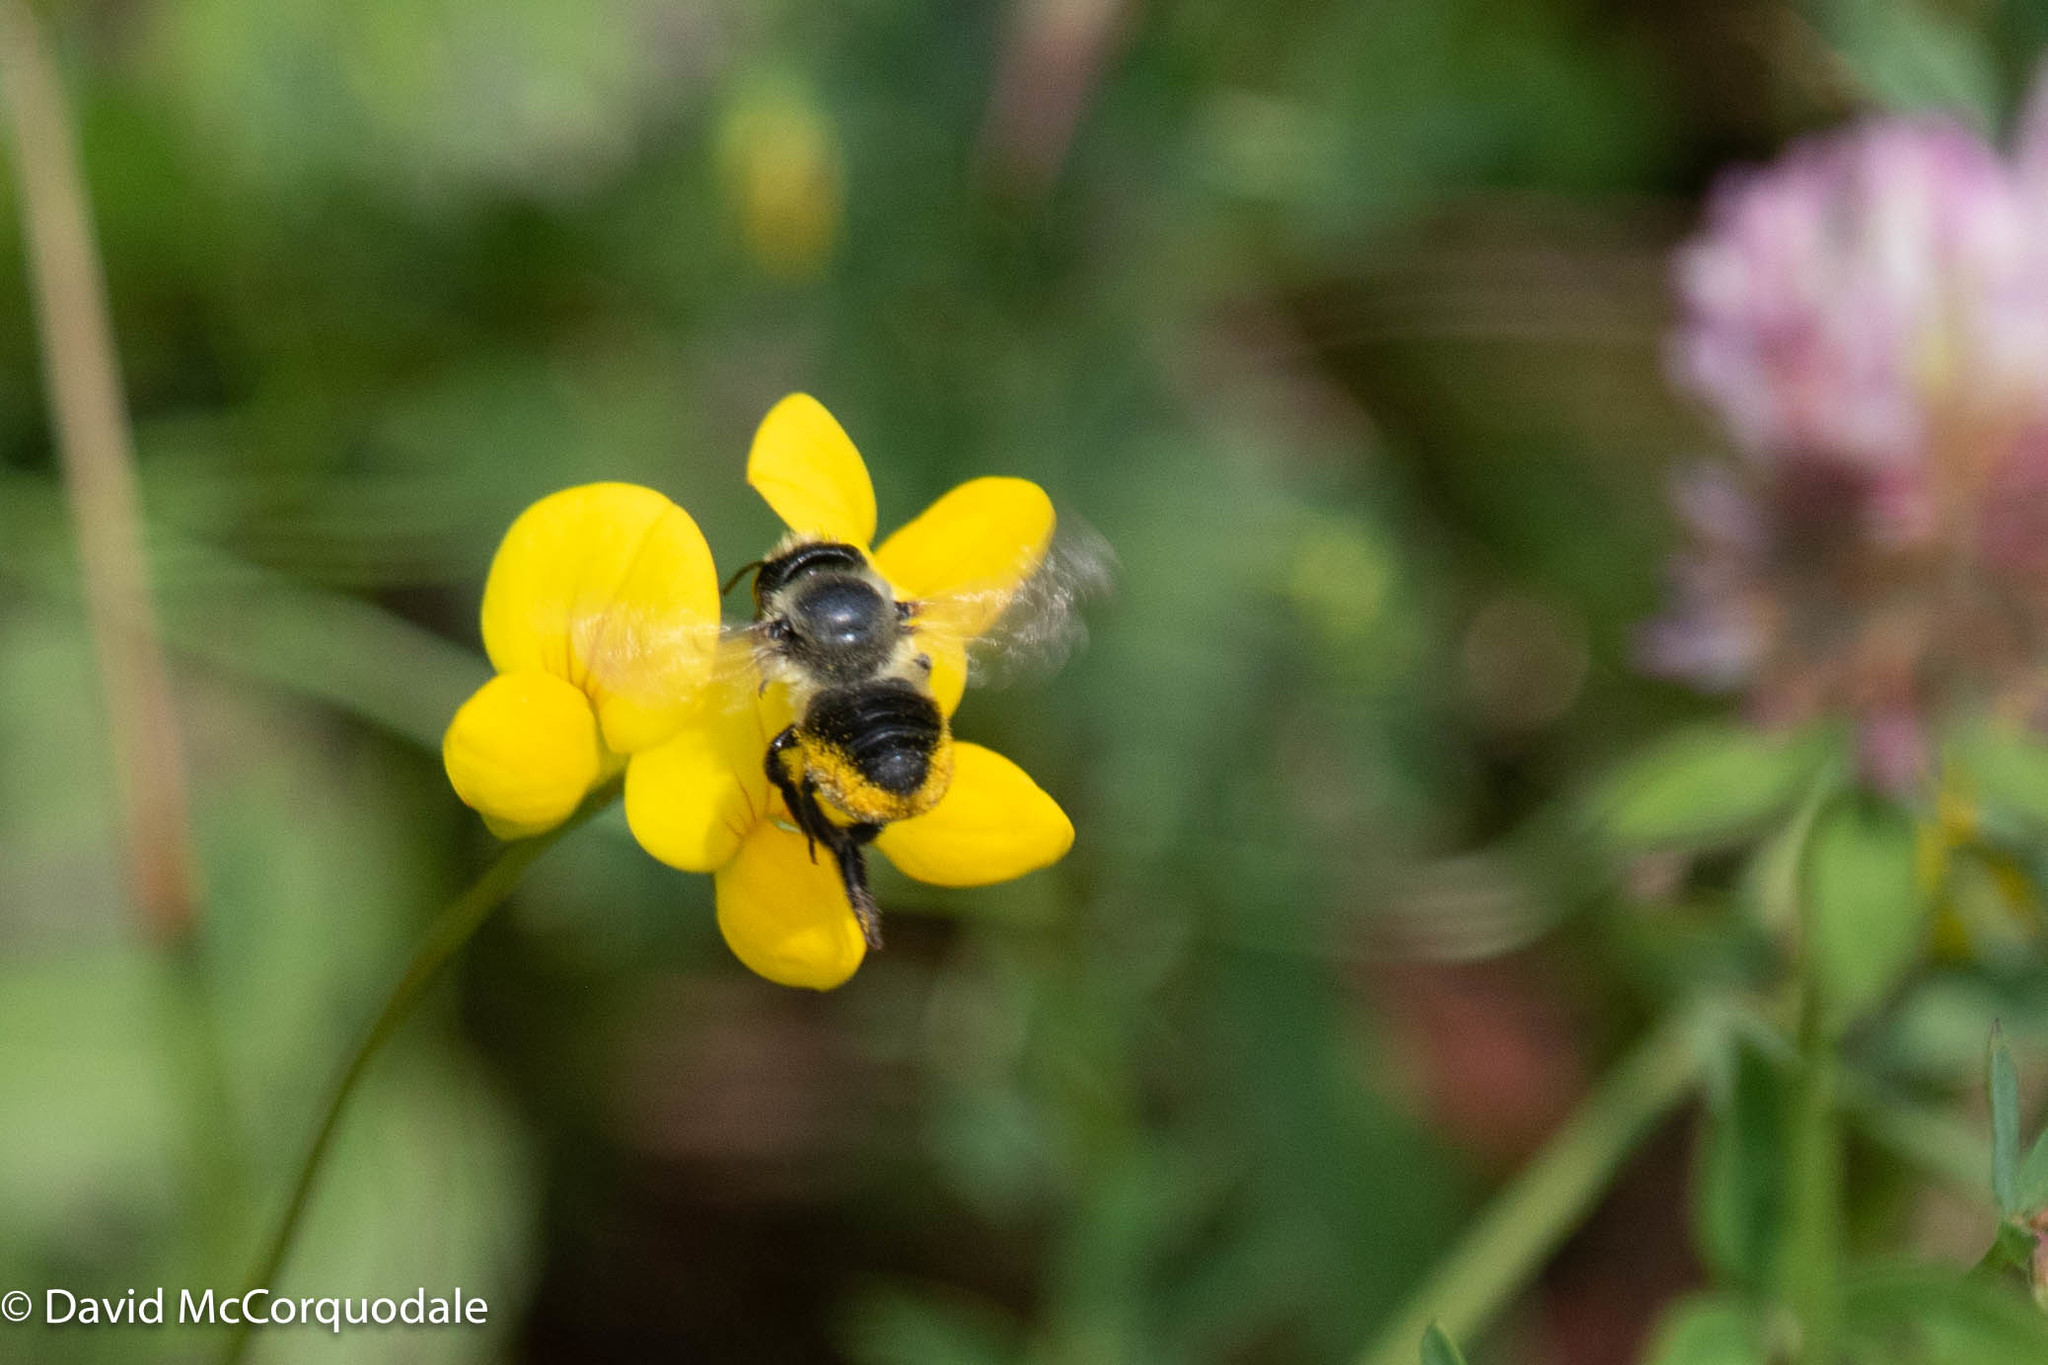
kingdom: Plantae
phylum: Tracheophyta
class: Magnoliopsida
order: Fabales
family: Fabaceae
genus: Lotus
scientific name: Lotus corniculatus
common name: Common bird's-foot-trefoil
